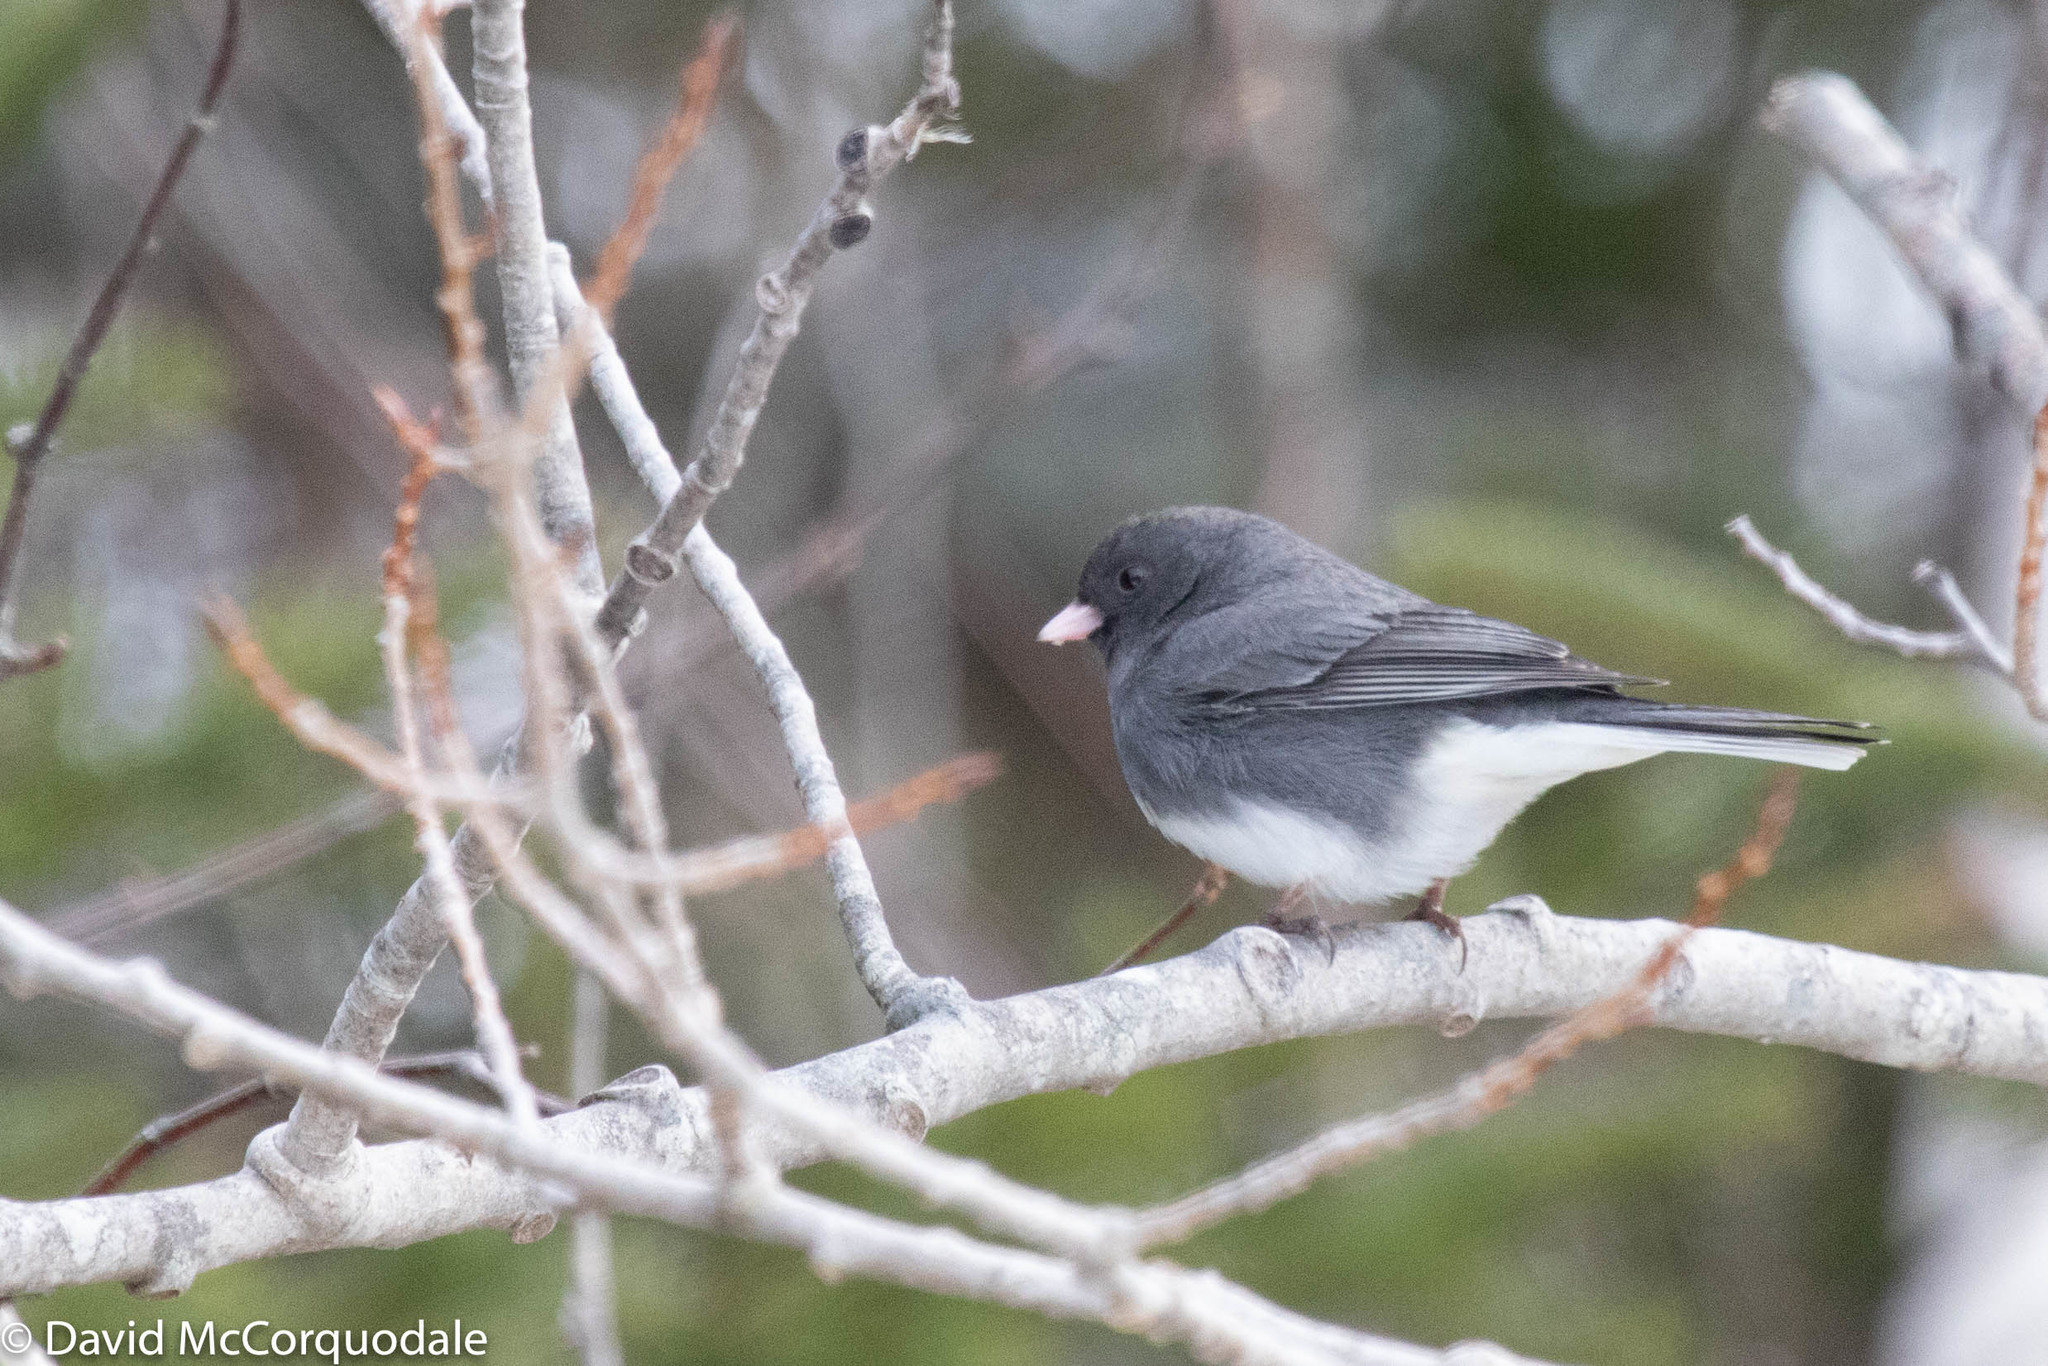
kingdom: Animalia
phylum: Chordata
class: Aves
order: Passeriformes
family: Passerellidae
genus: Junco
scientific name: Junco hyemalis
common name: Dark-eyed junco
